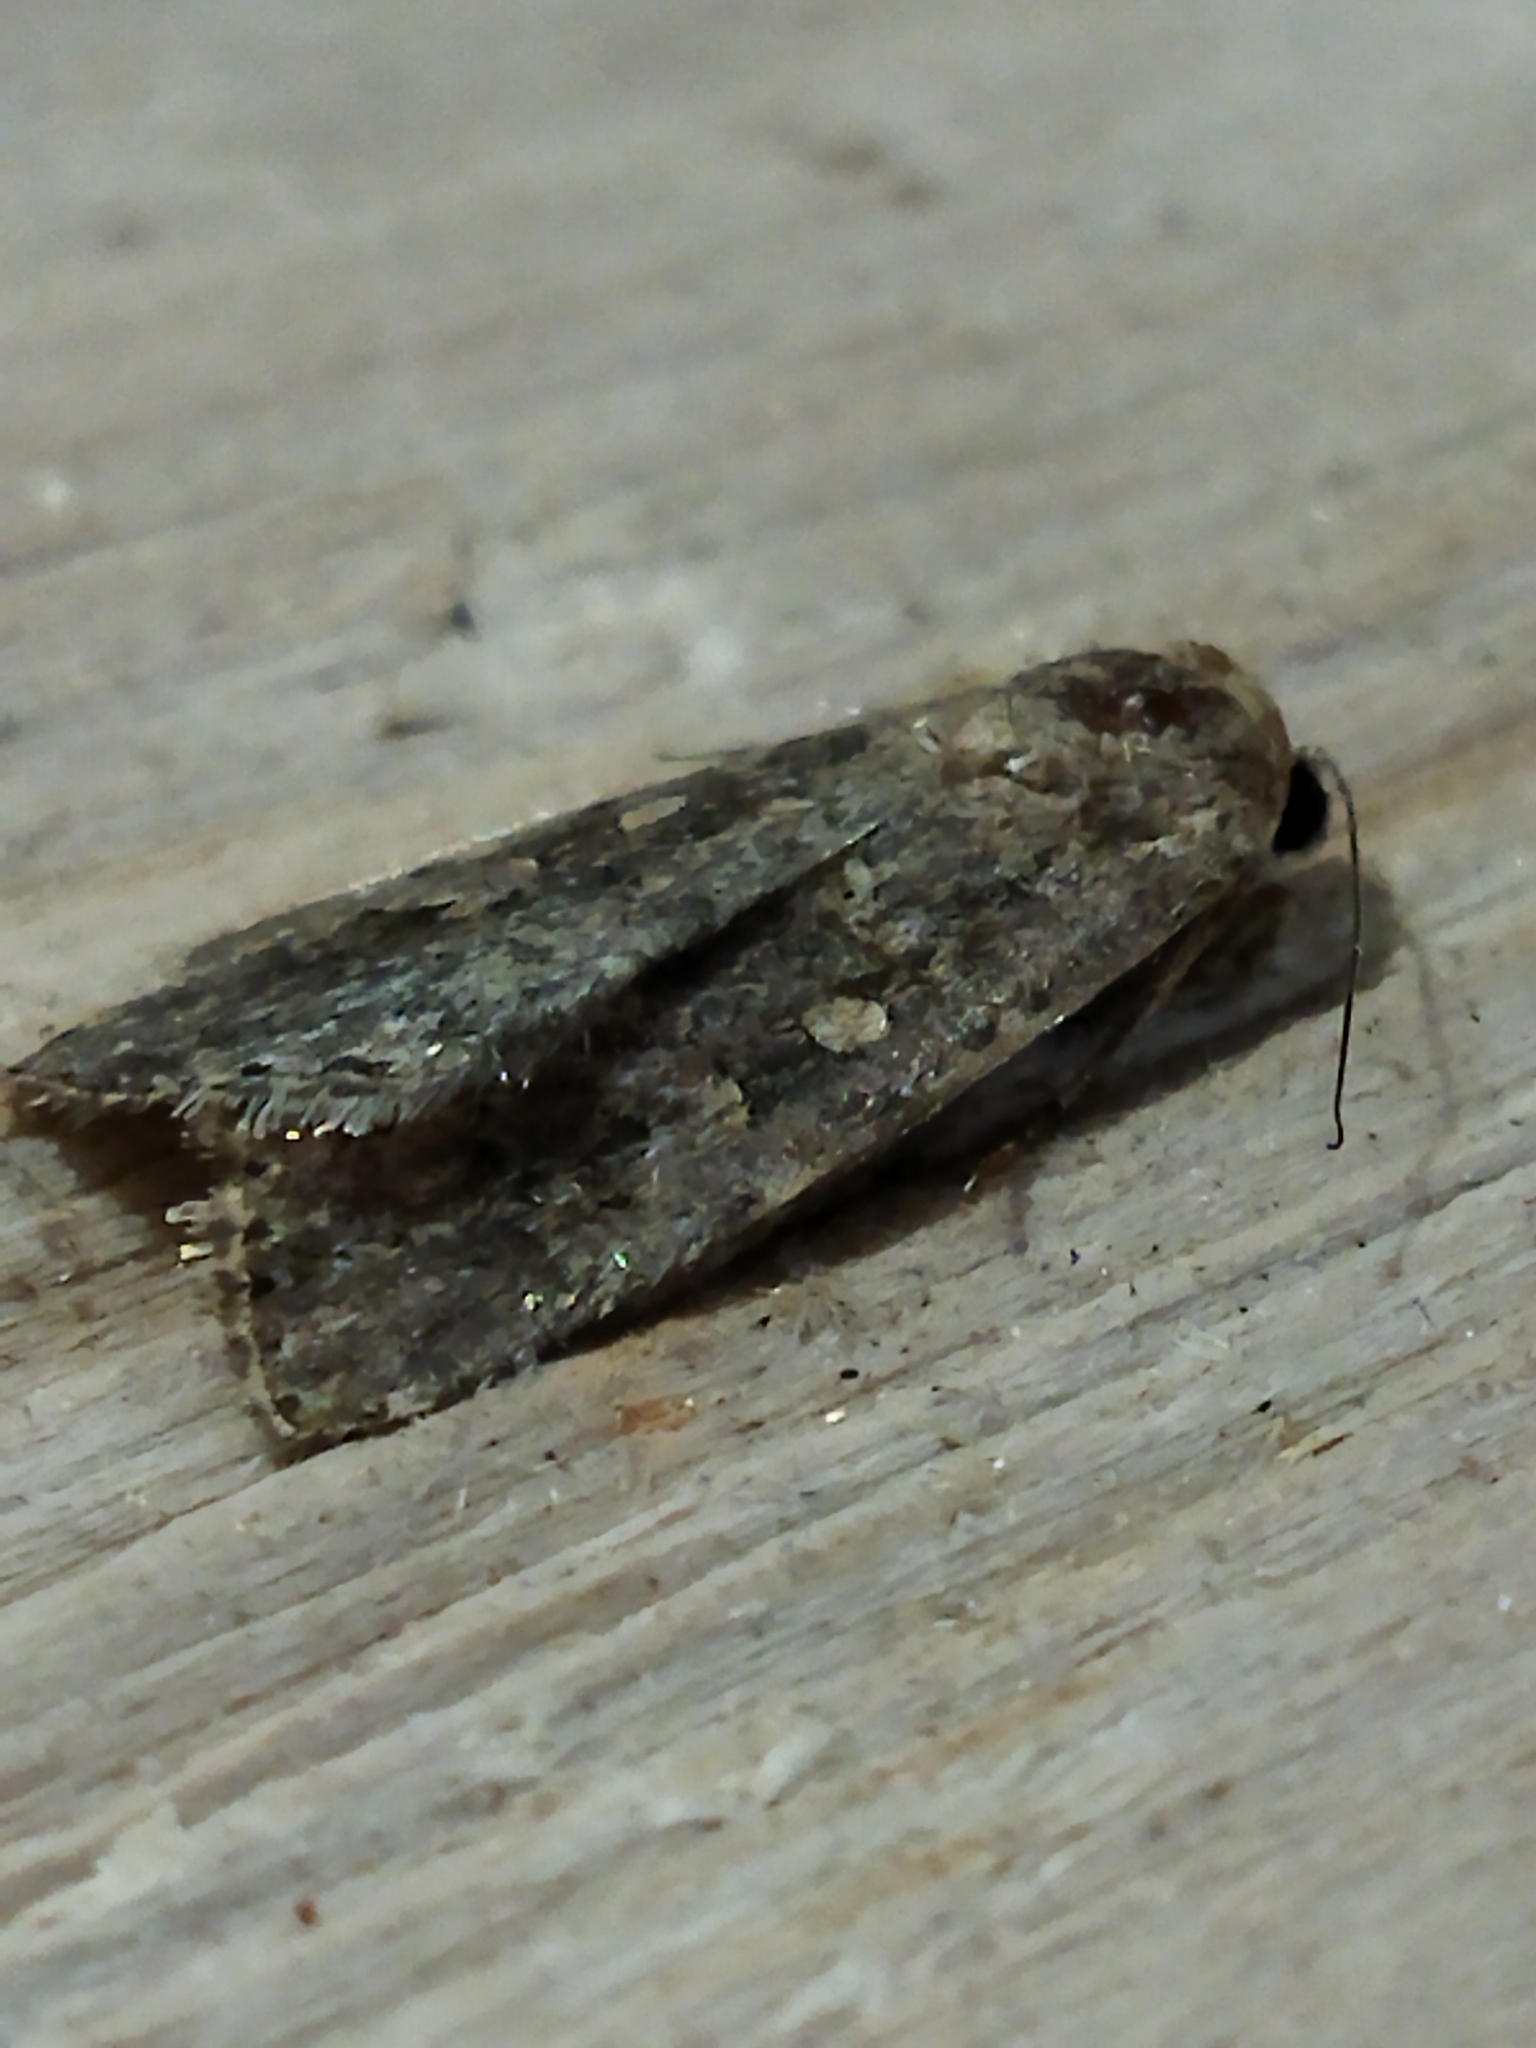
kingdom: Animalia
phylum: Arthropoda
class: Insecta
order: Lepidoptera
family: Noctuidae
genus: Spodoptera
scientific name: Spodoptera exigua
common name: Beet armyworm
